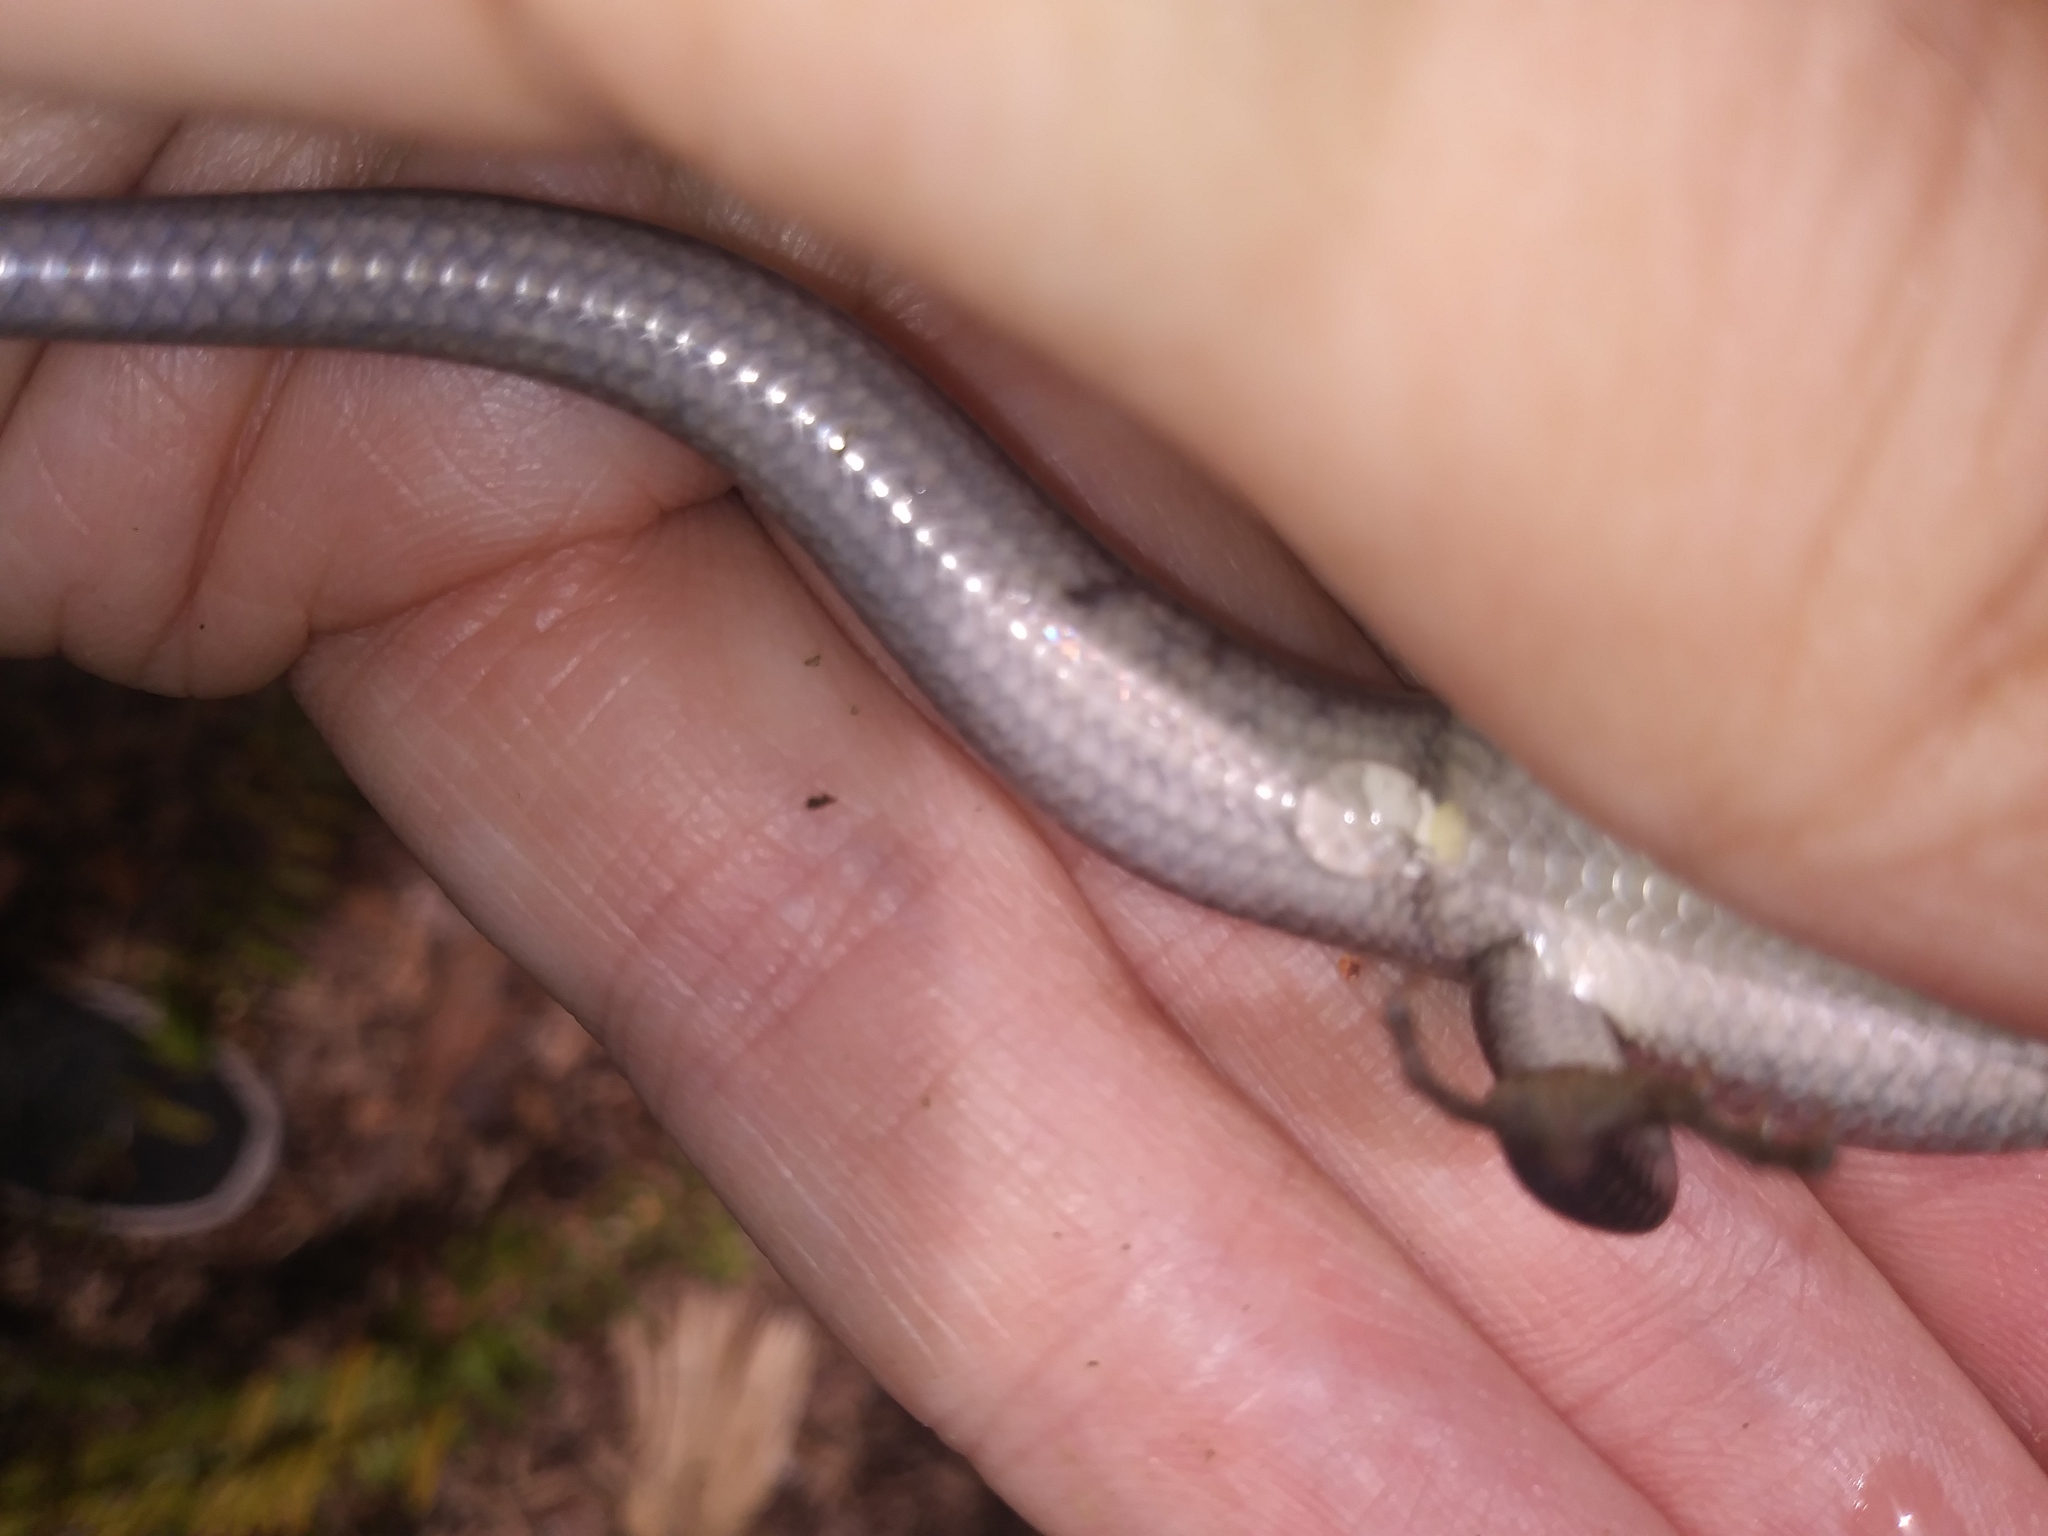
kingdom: Animalia
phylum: Chordata
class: Squamata
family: Scincidae
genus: Plestiodon
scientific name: Plestiodon inexpectatus
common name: Southeastern five-lined skink
